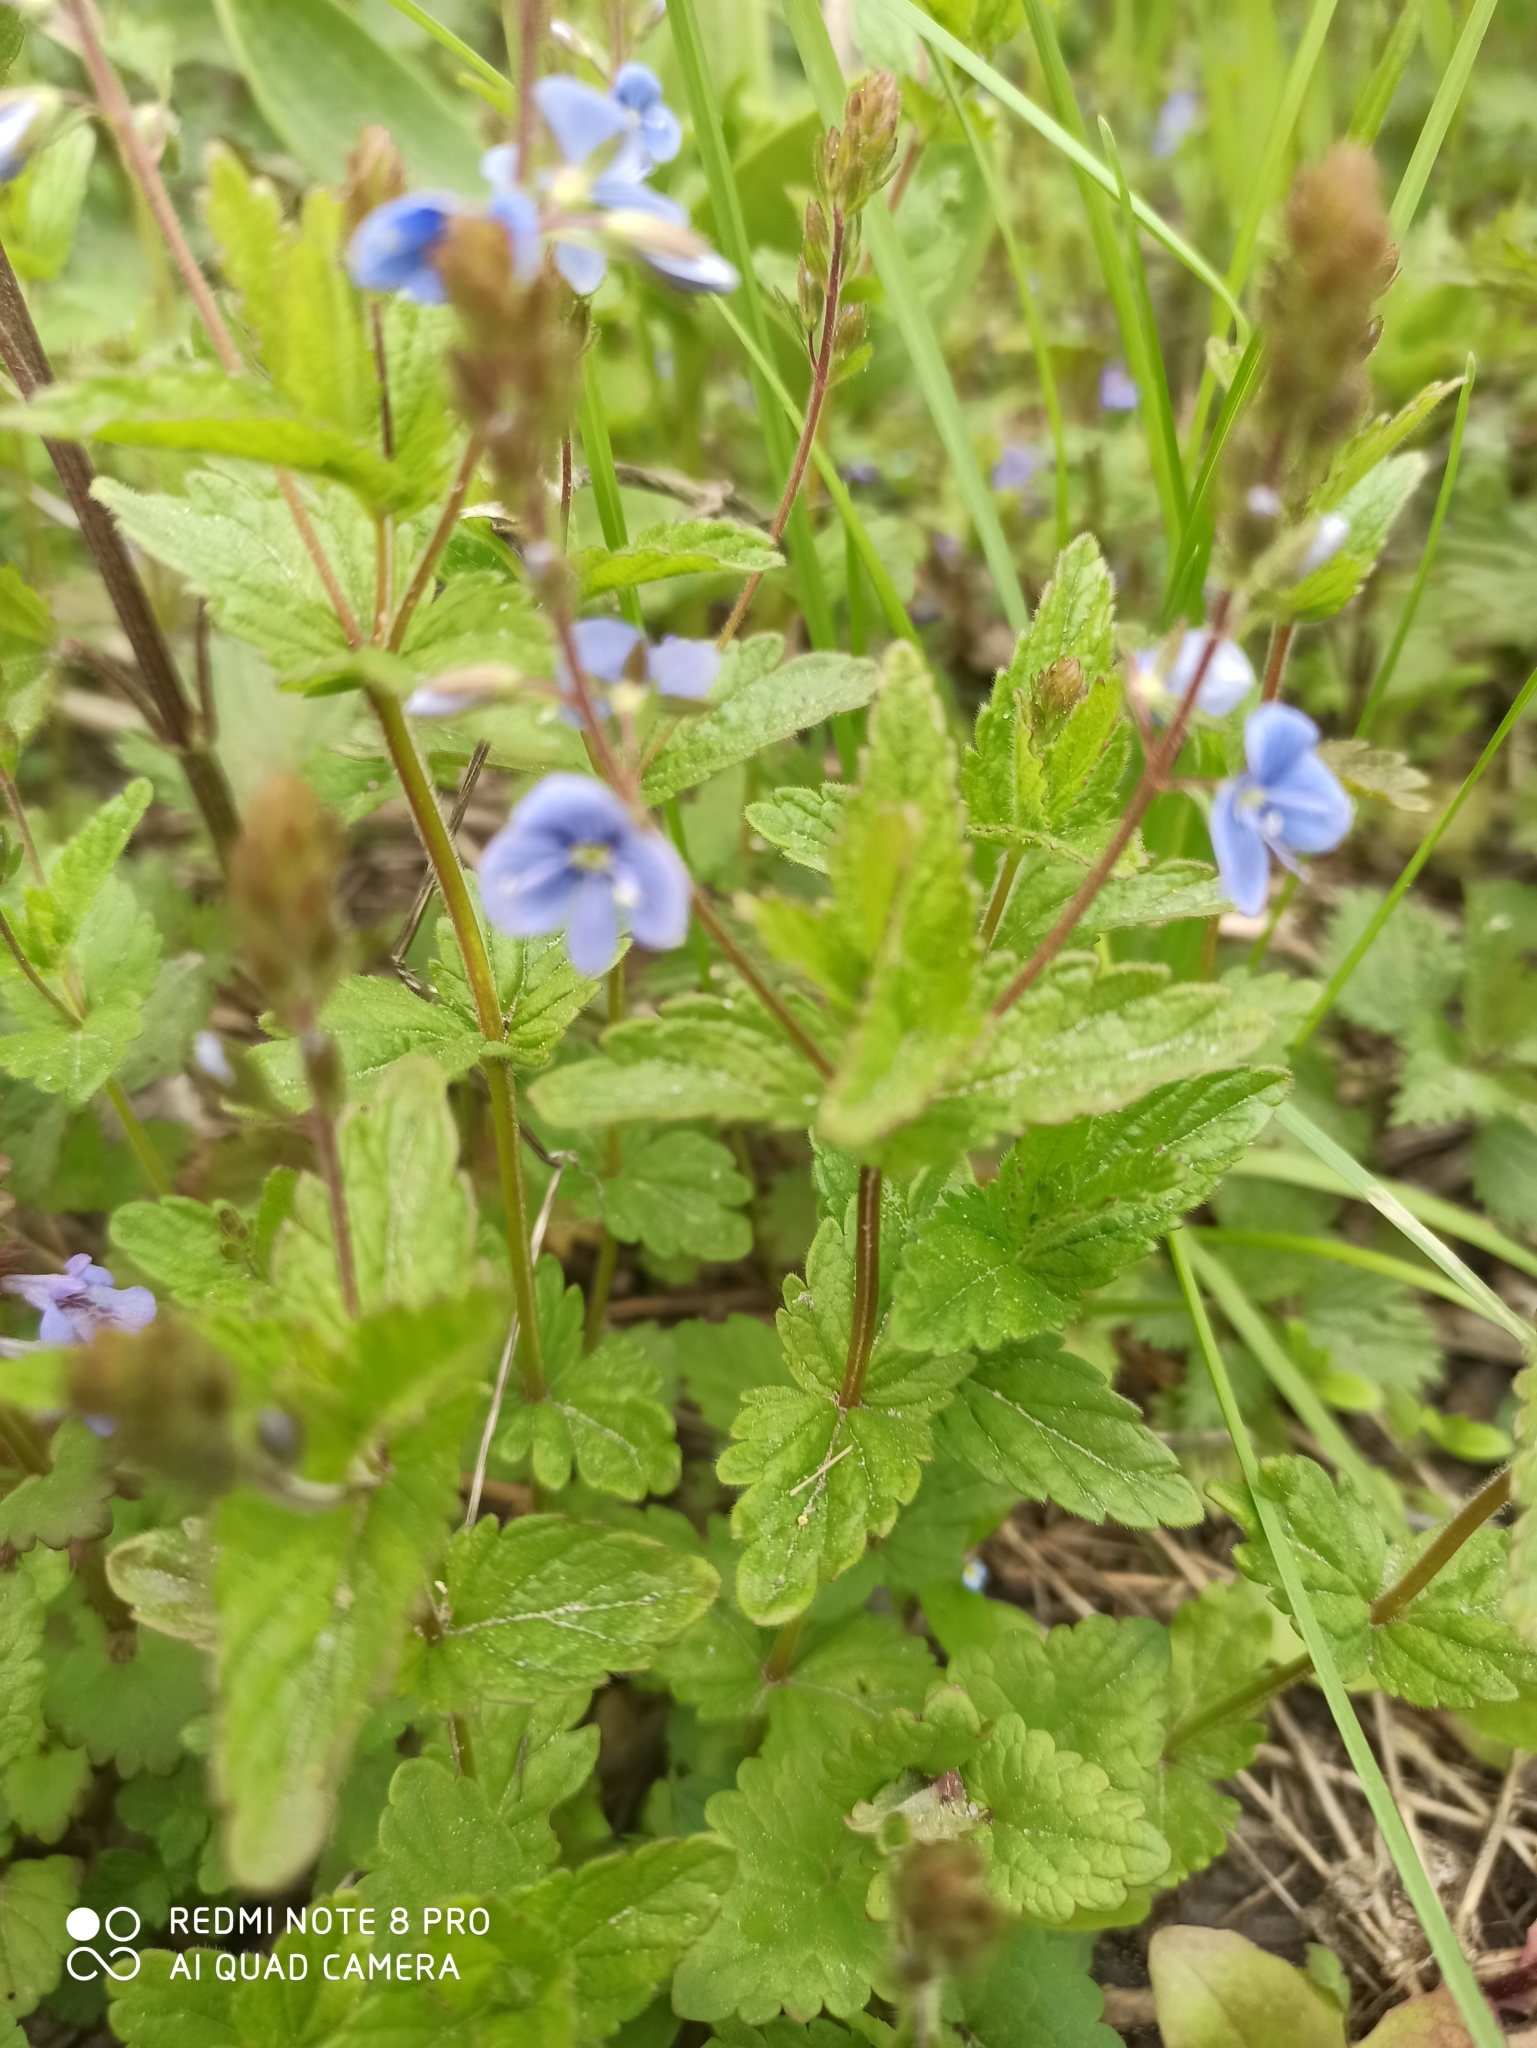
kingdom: Plantae
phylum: Tracheophyta
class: Magnoliopsida
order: Lamiales
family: Plantaginaceae
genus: Veronica
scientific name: Veronica chamaedrys
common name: Germander speedwell
